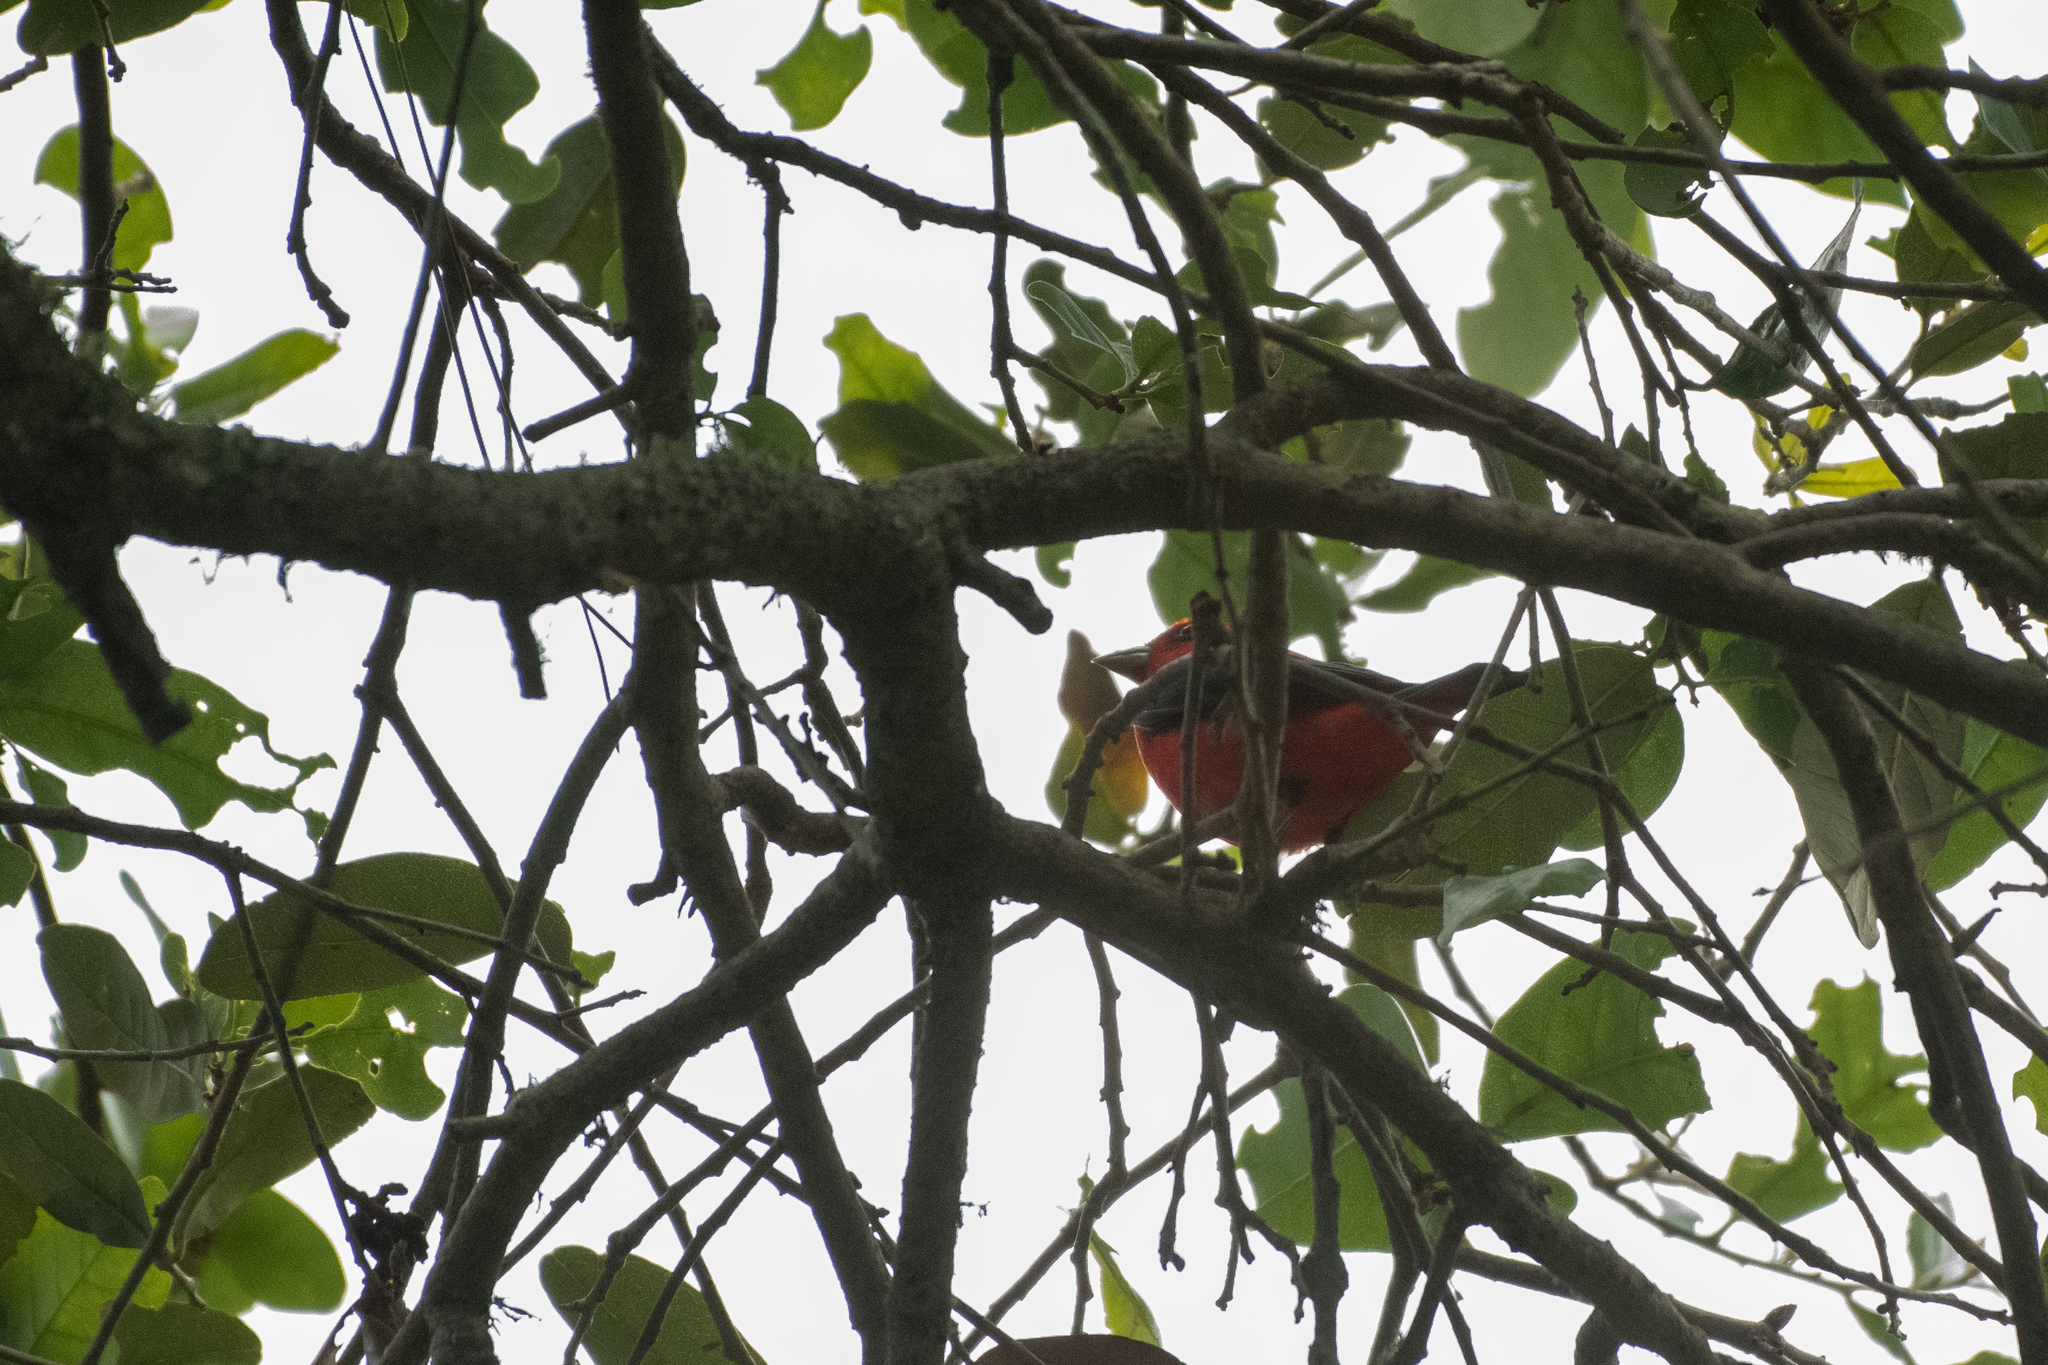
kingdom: Animalia
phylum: Chordata
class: Aves
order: Passeriformes
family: Cardinalidae
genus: Piranga
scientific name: Piranga olivacea
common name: Scarlet tanager
